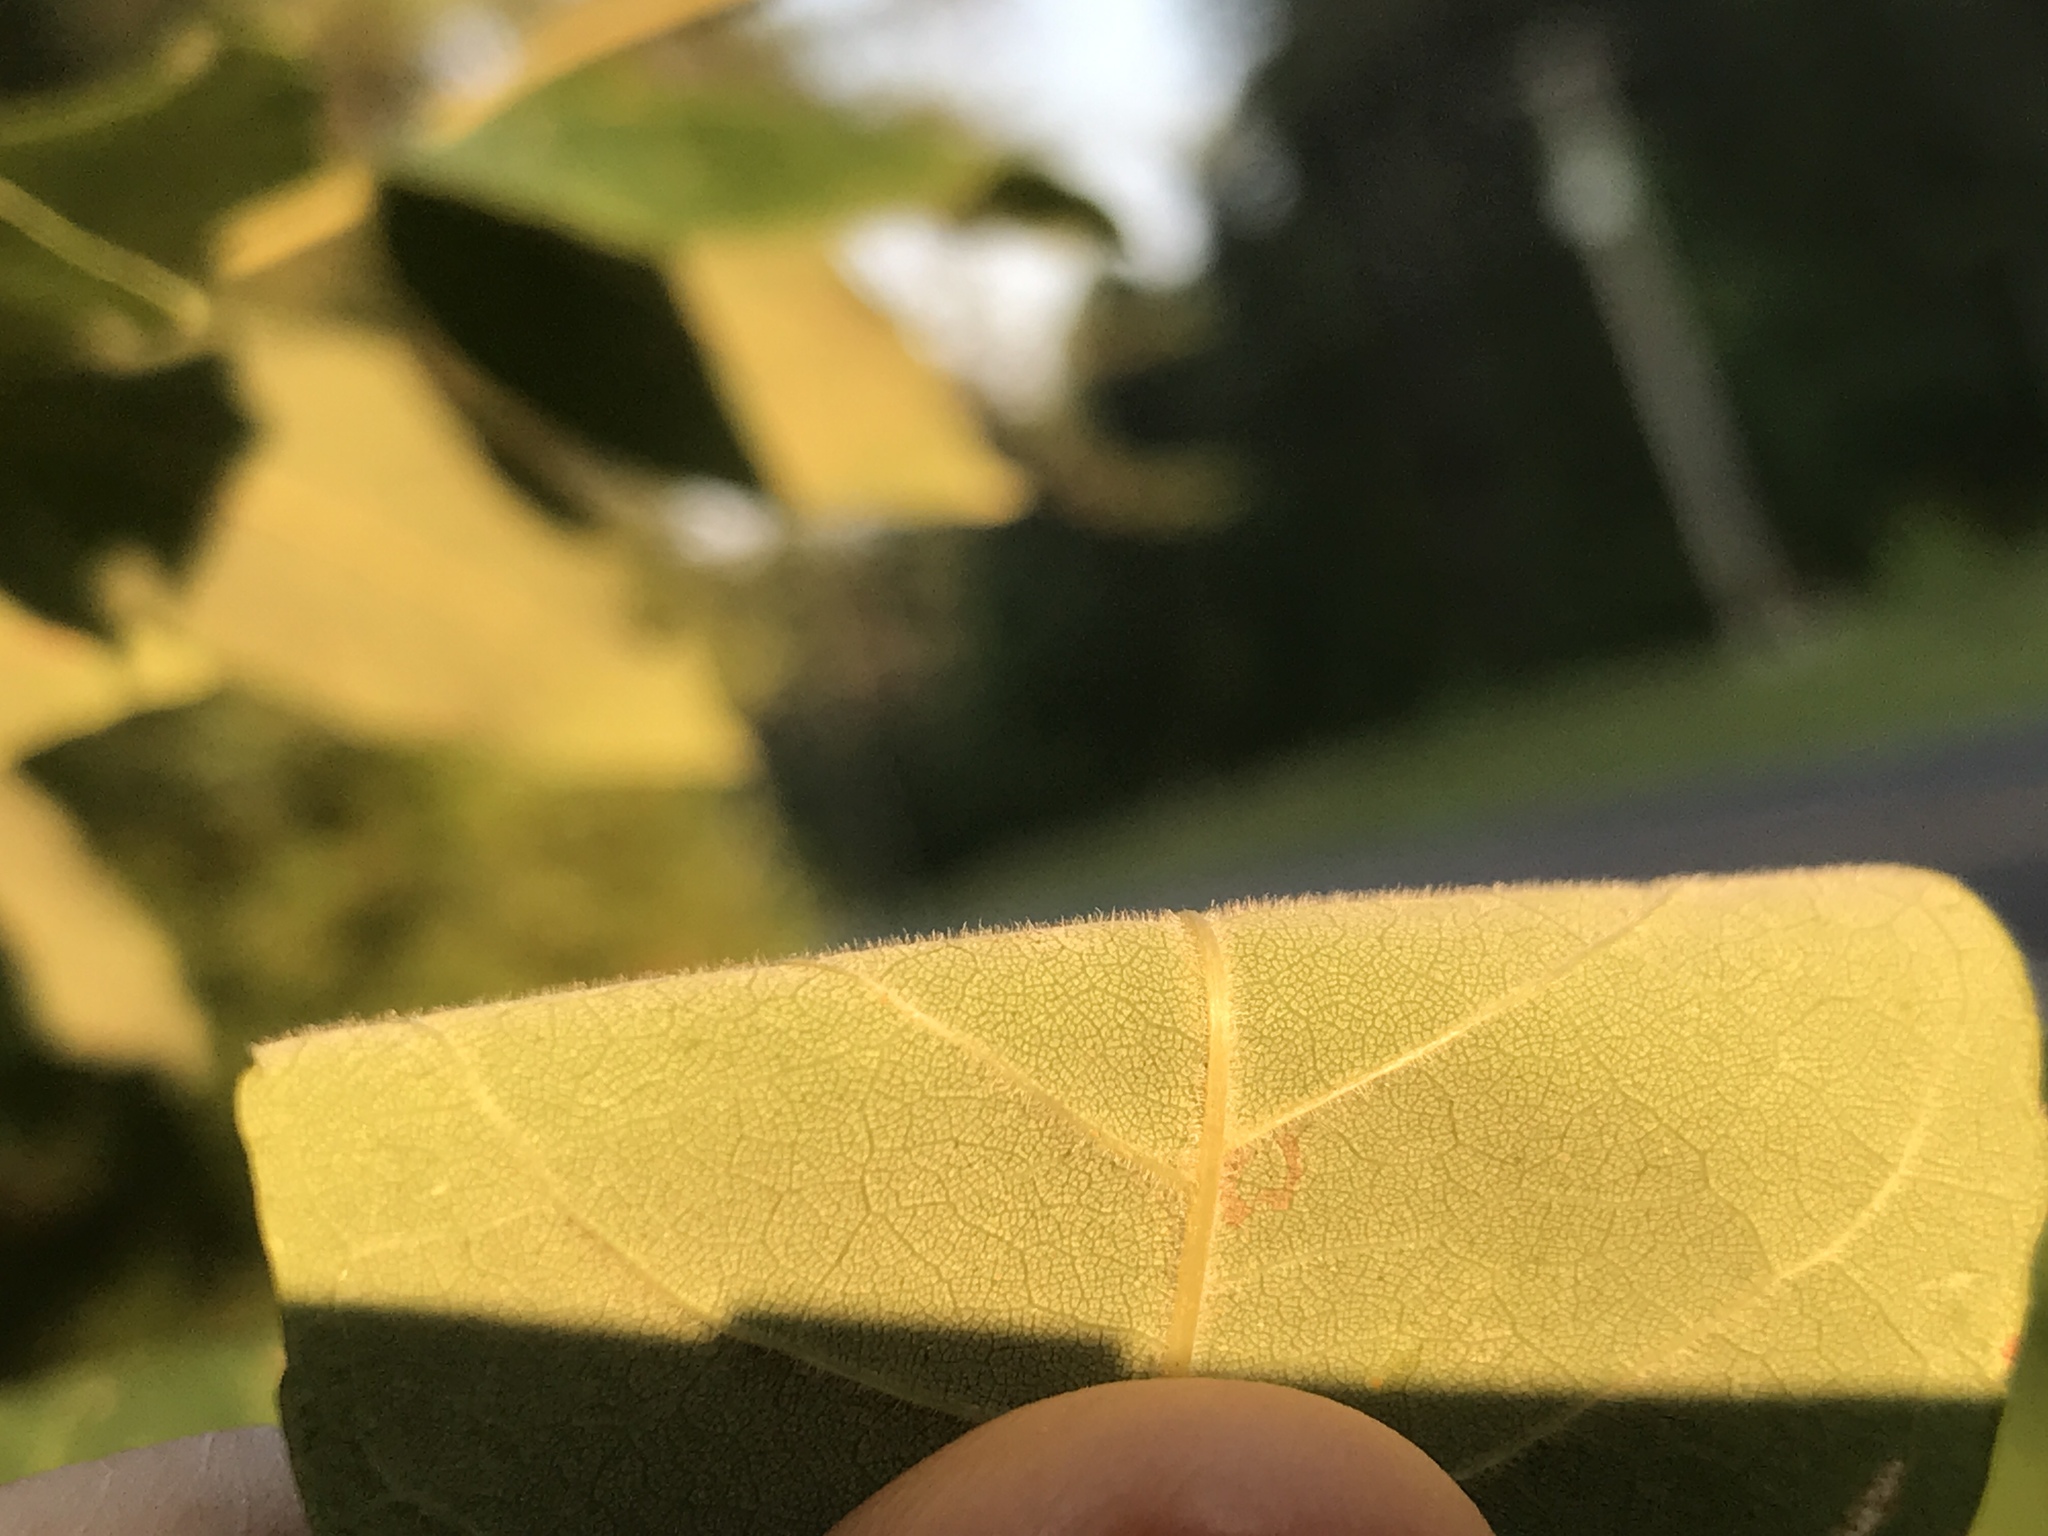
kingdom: Plantae
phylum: Tracheophyta
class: Magnoliopsida
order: Lamiales
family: Oleaceae
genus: Fraxinus
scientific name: Fraxinus americana
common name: White ash
